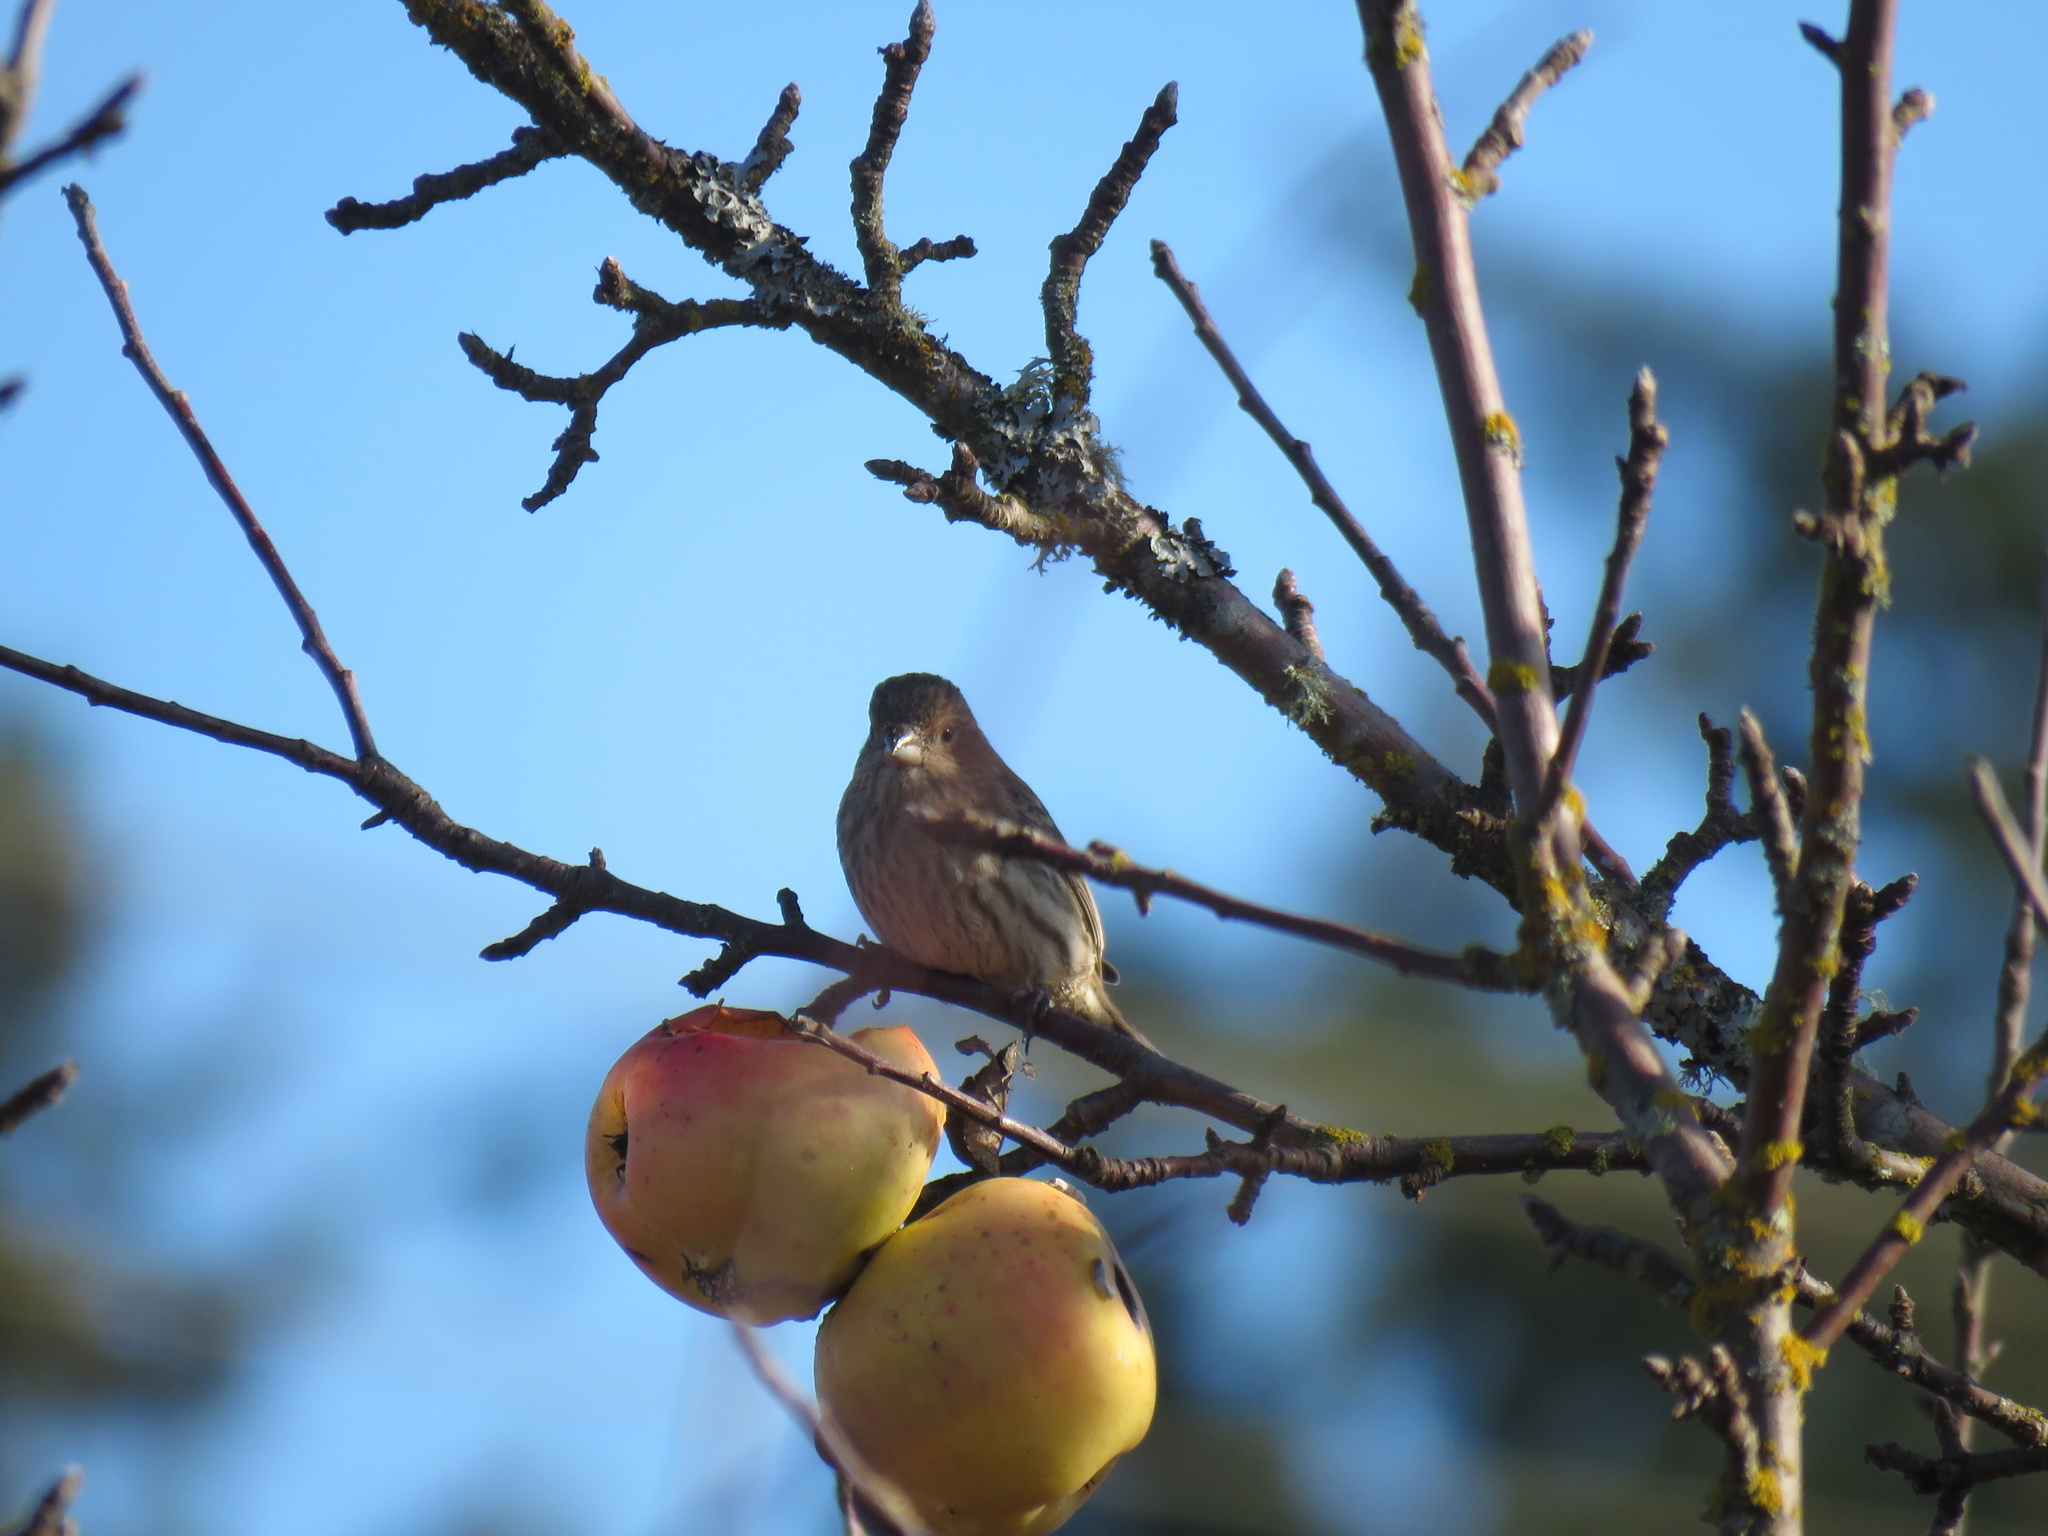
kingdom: Animalia
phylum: Chordata
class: Aves
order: Passeriformes
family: Fringillidae
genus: Haemorhous
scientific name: Haemorhous mexicanus
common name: House finch
